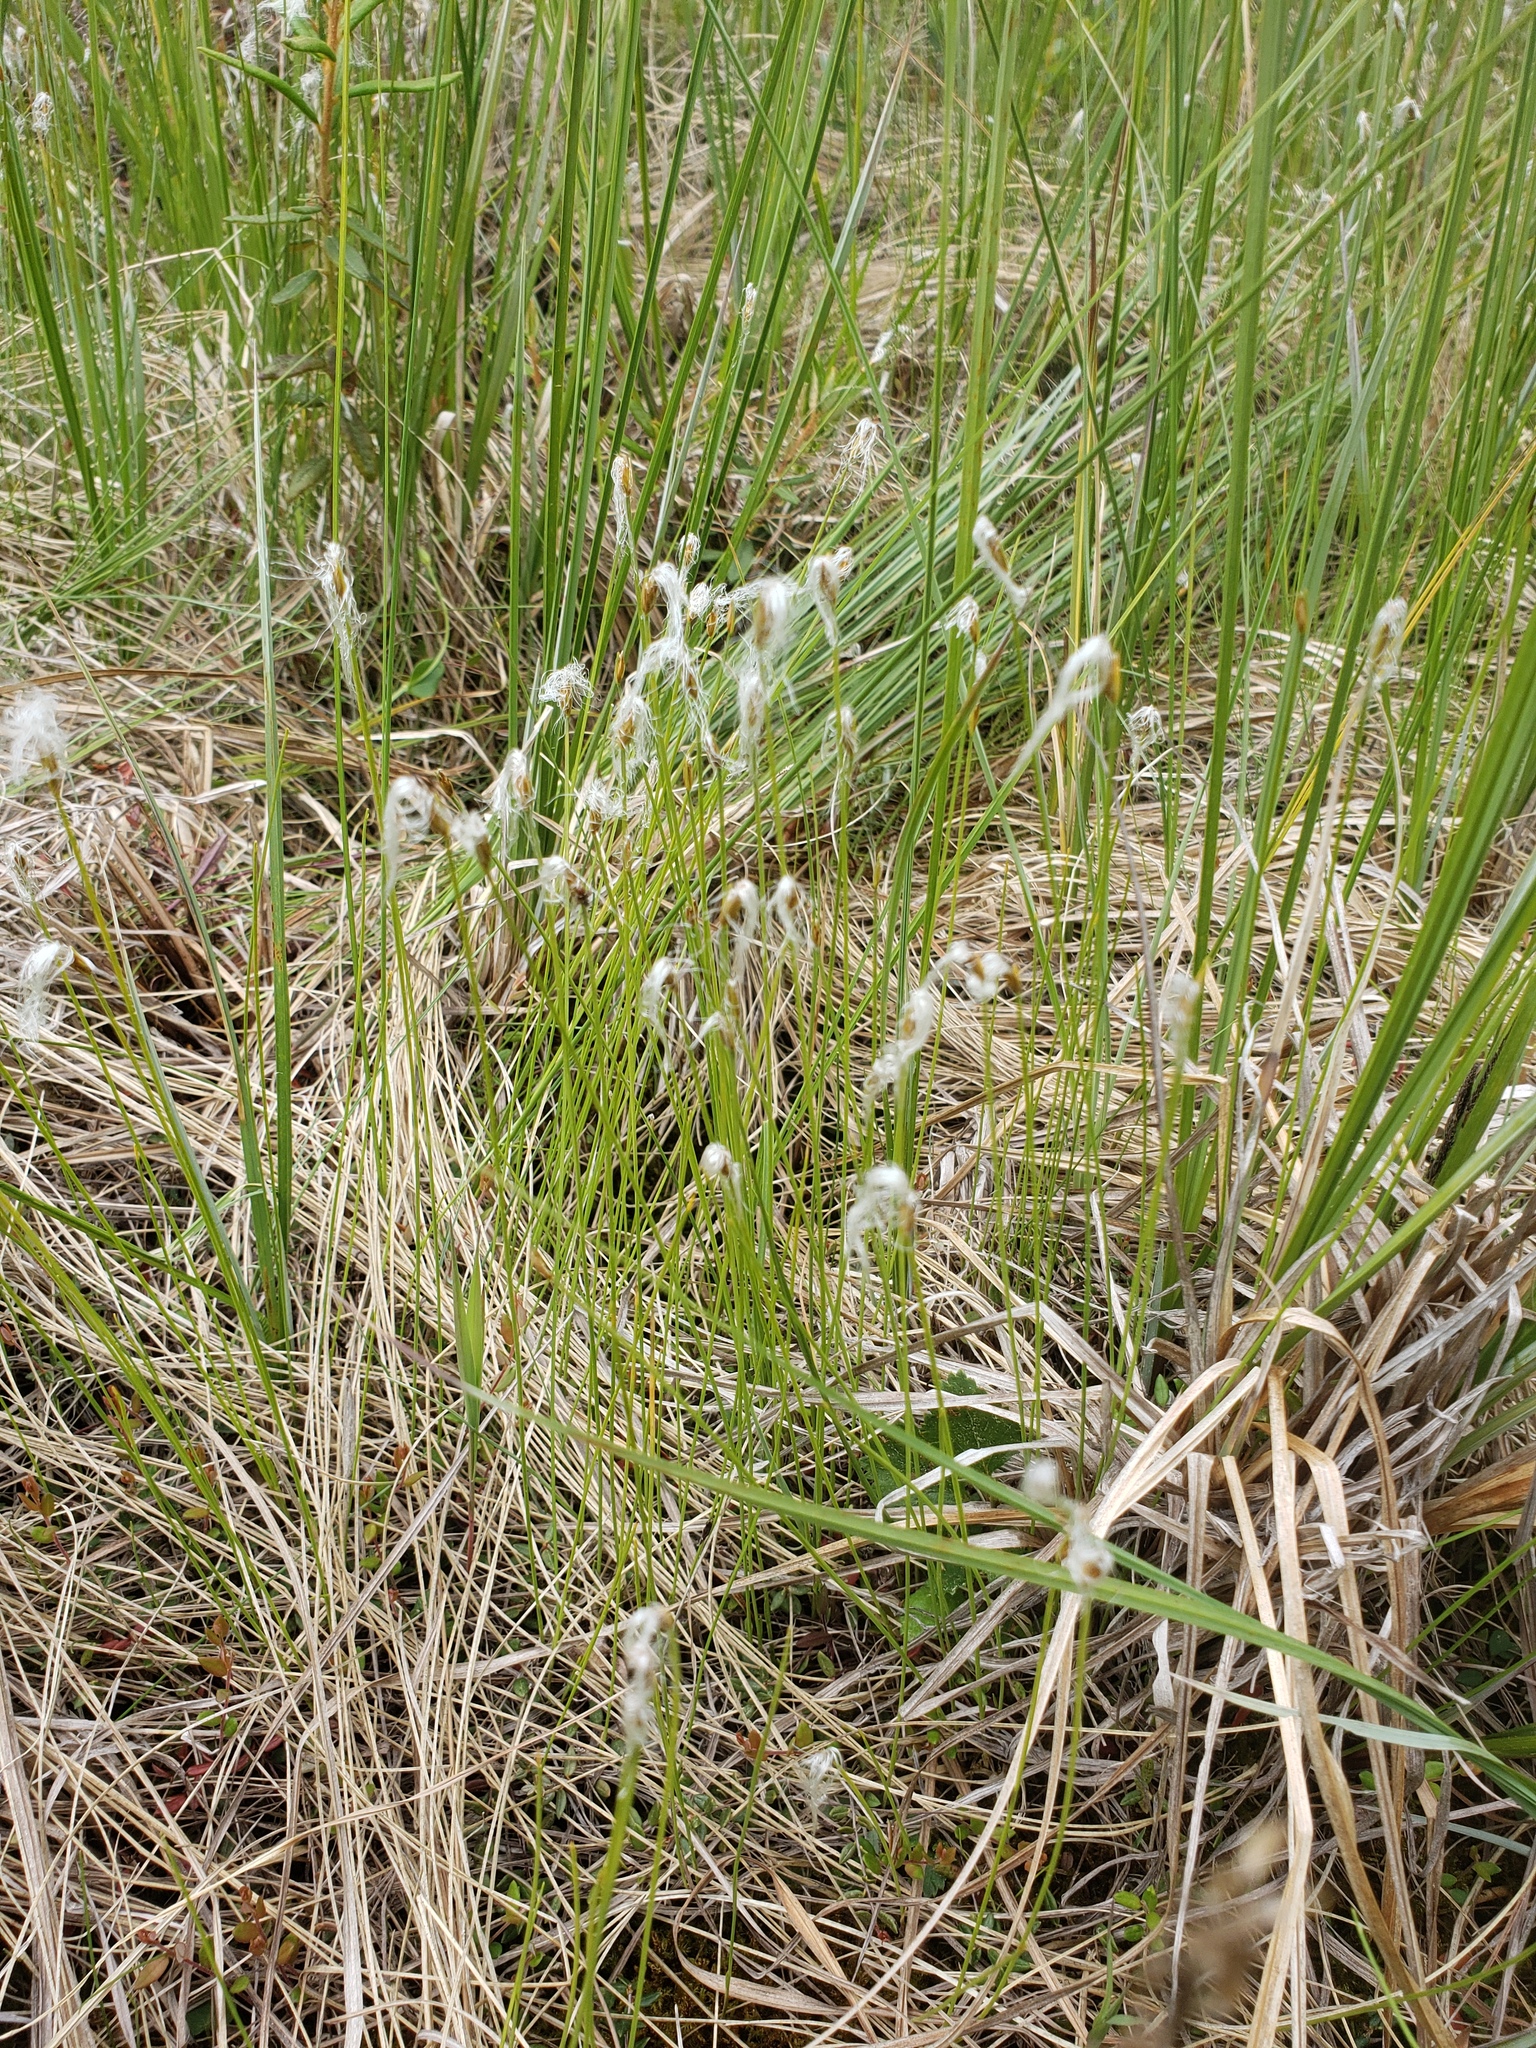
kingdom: Plantae
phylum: Tracheophyta
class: Liliopsida
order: Poales
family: Cyperaceae
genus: Trichophorum
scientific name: Trichophorum alpinum
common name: Alpine bulrush
